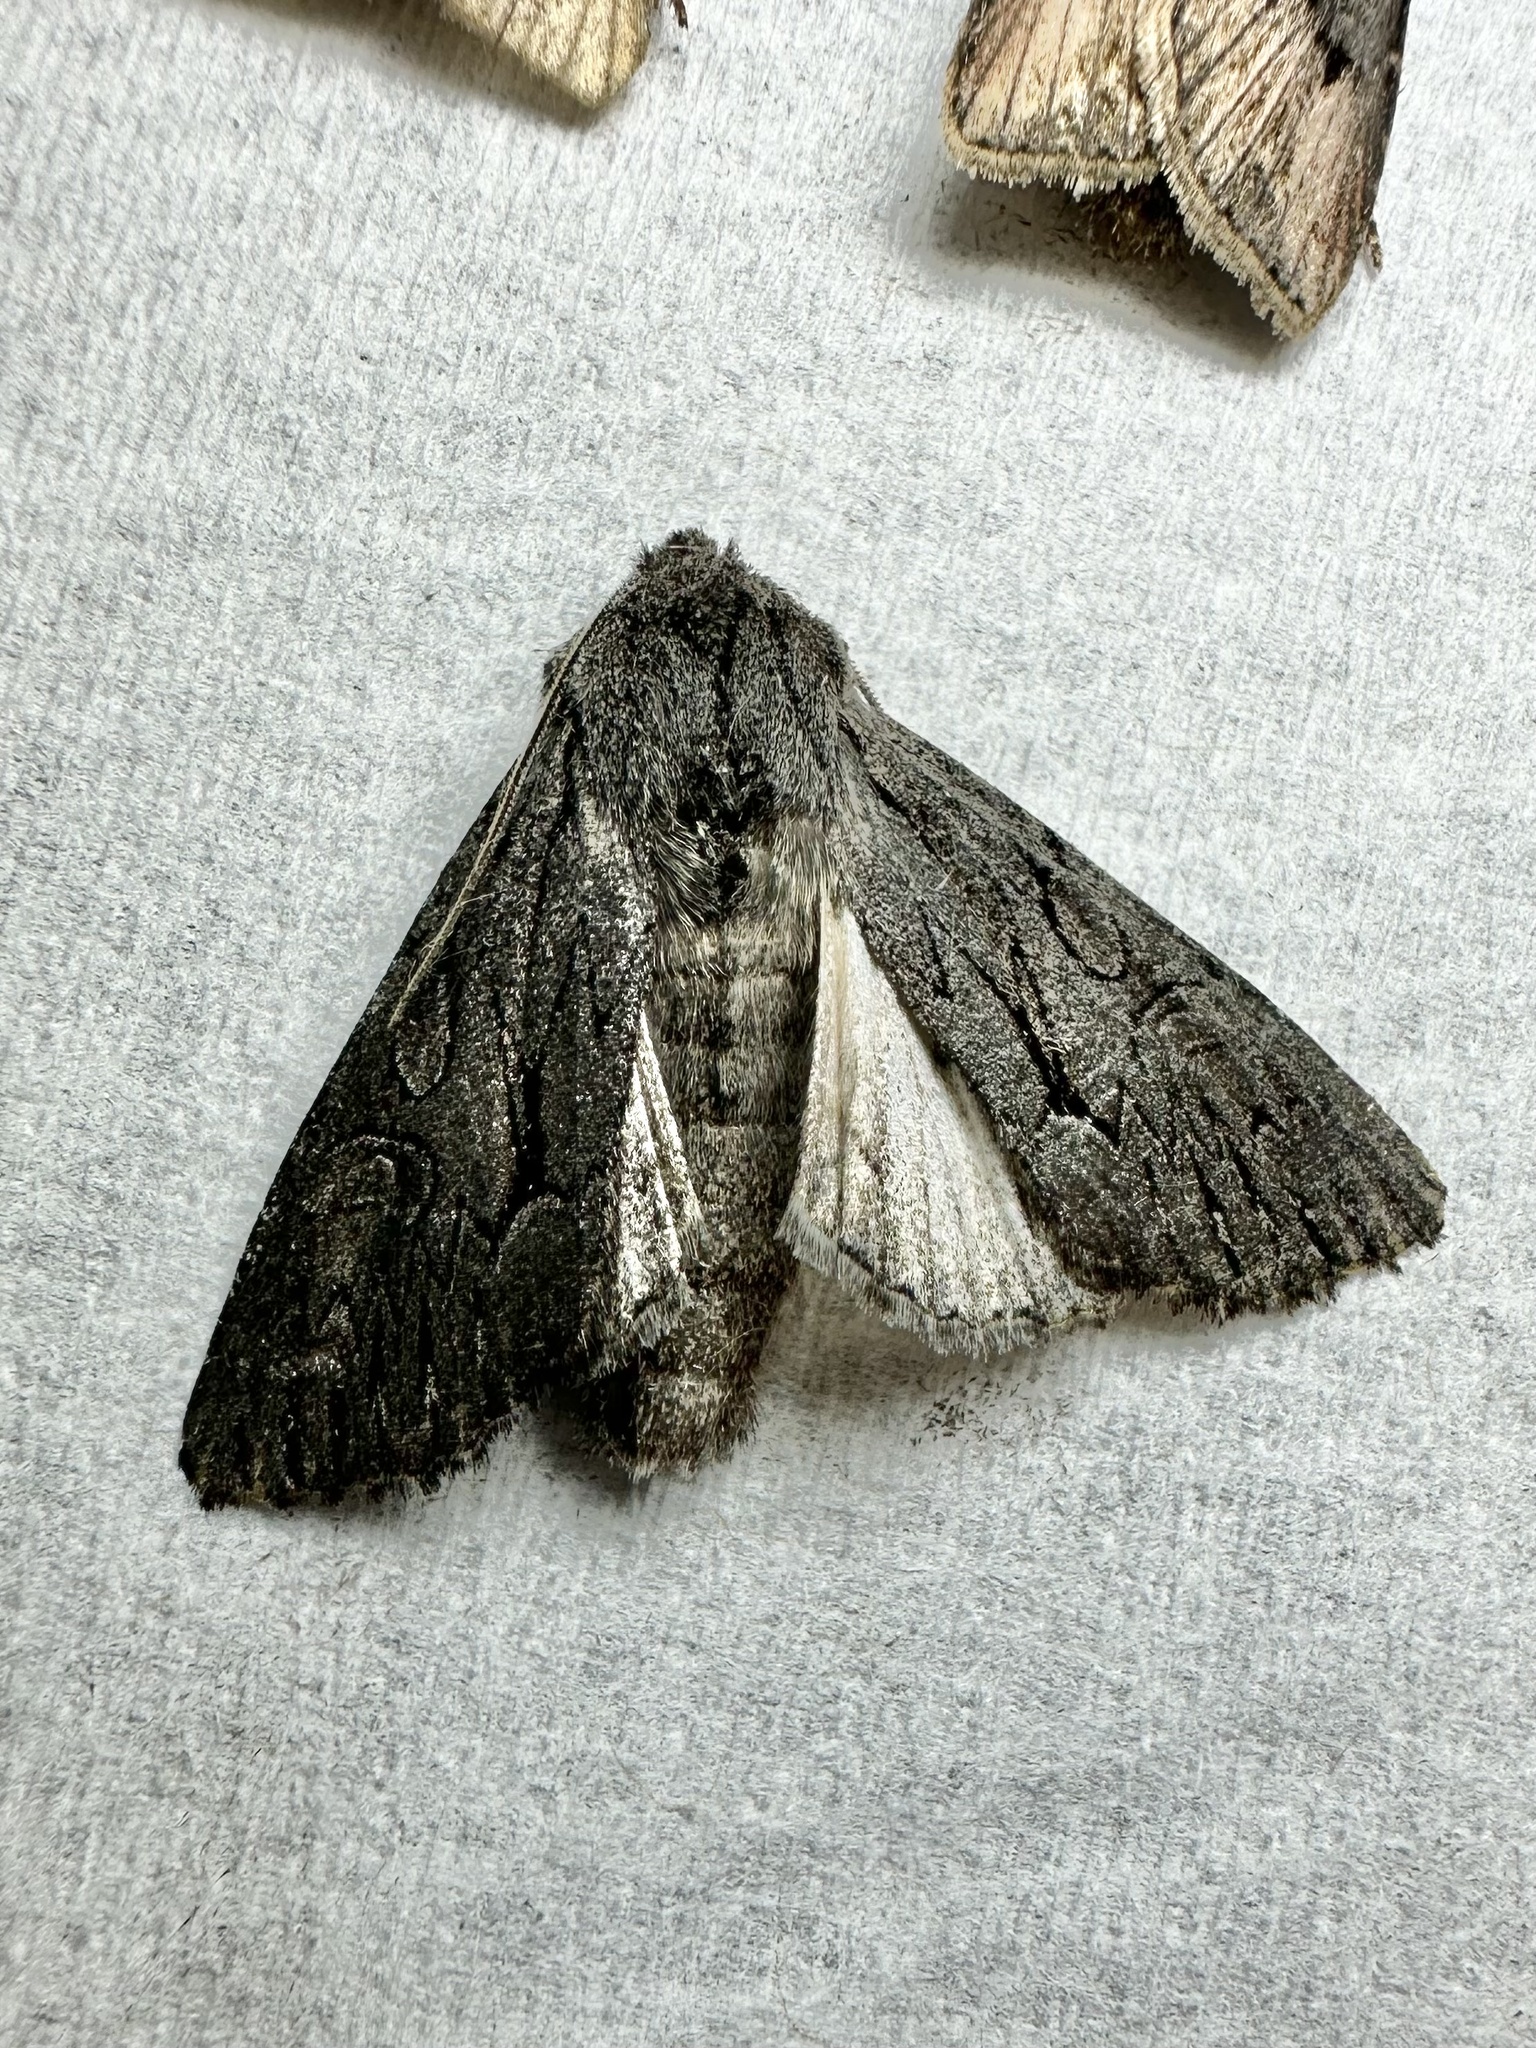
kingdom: Animalia
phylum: Arthropoda
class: Insecta
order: Lepidoptera
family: Noctuidae
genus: Fishia
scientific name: Fishia yosemitae
